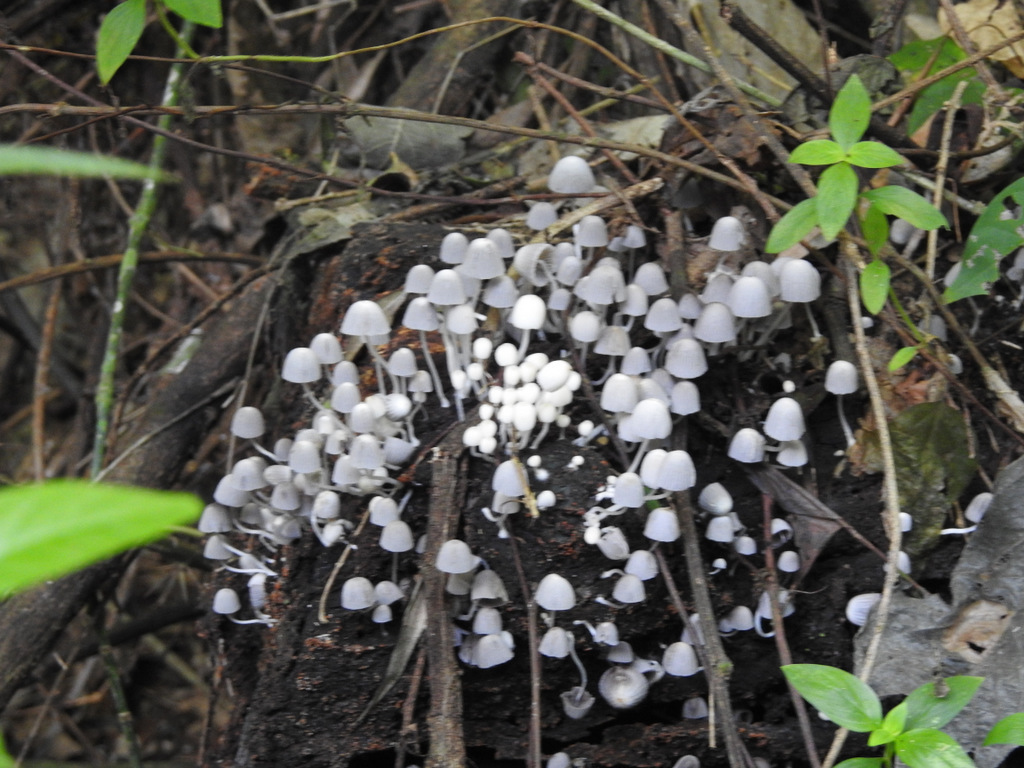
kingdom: Fungi
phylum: Basidiomycota
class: Agaricomycetes
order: Agaricales
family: Psathyrellaceae
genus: Coprinellus
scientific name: Coprinellus disseminatus
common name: Fairies' bonnets
